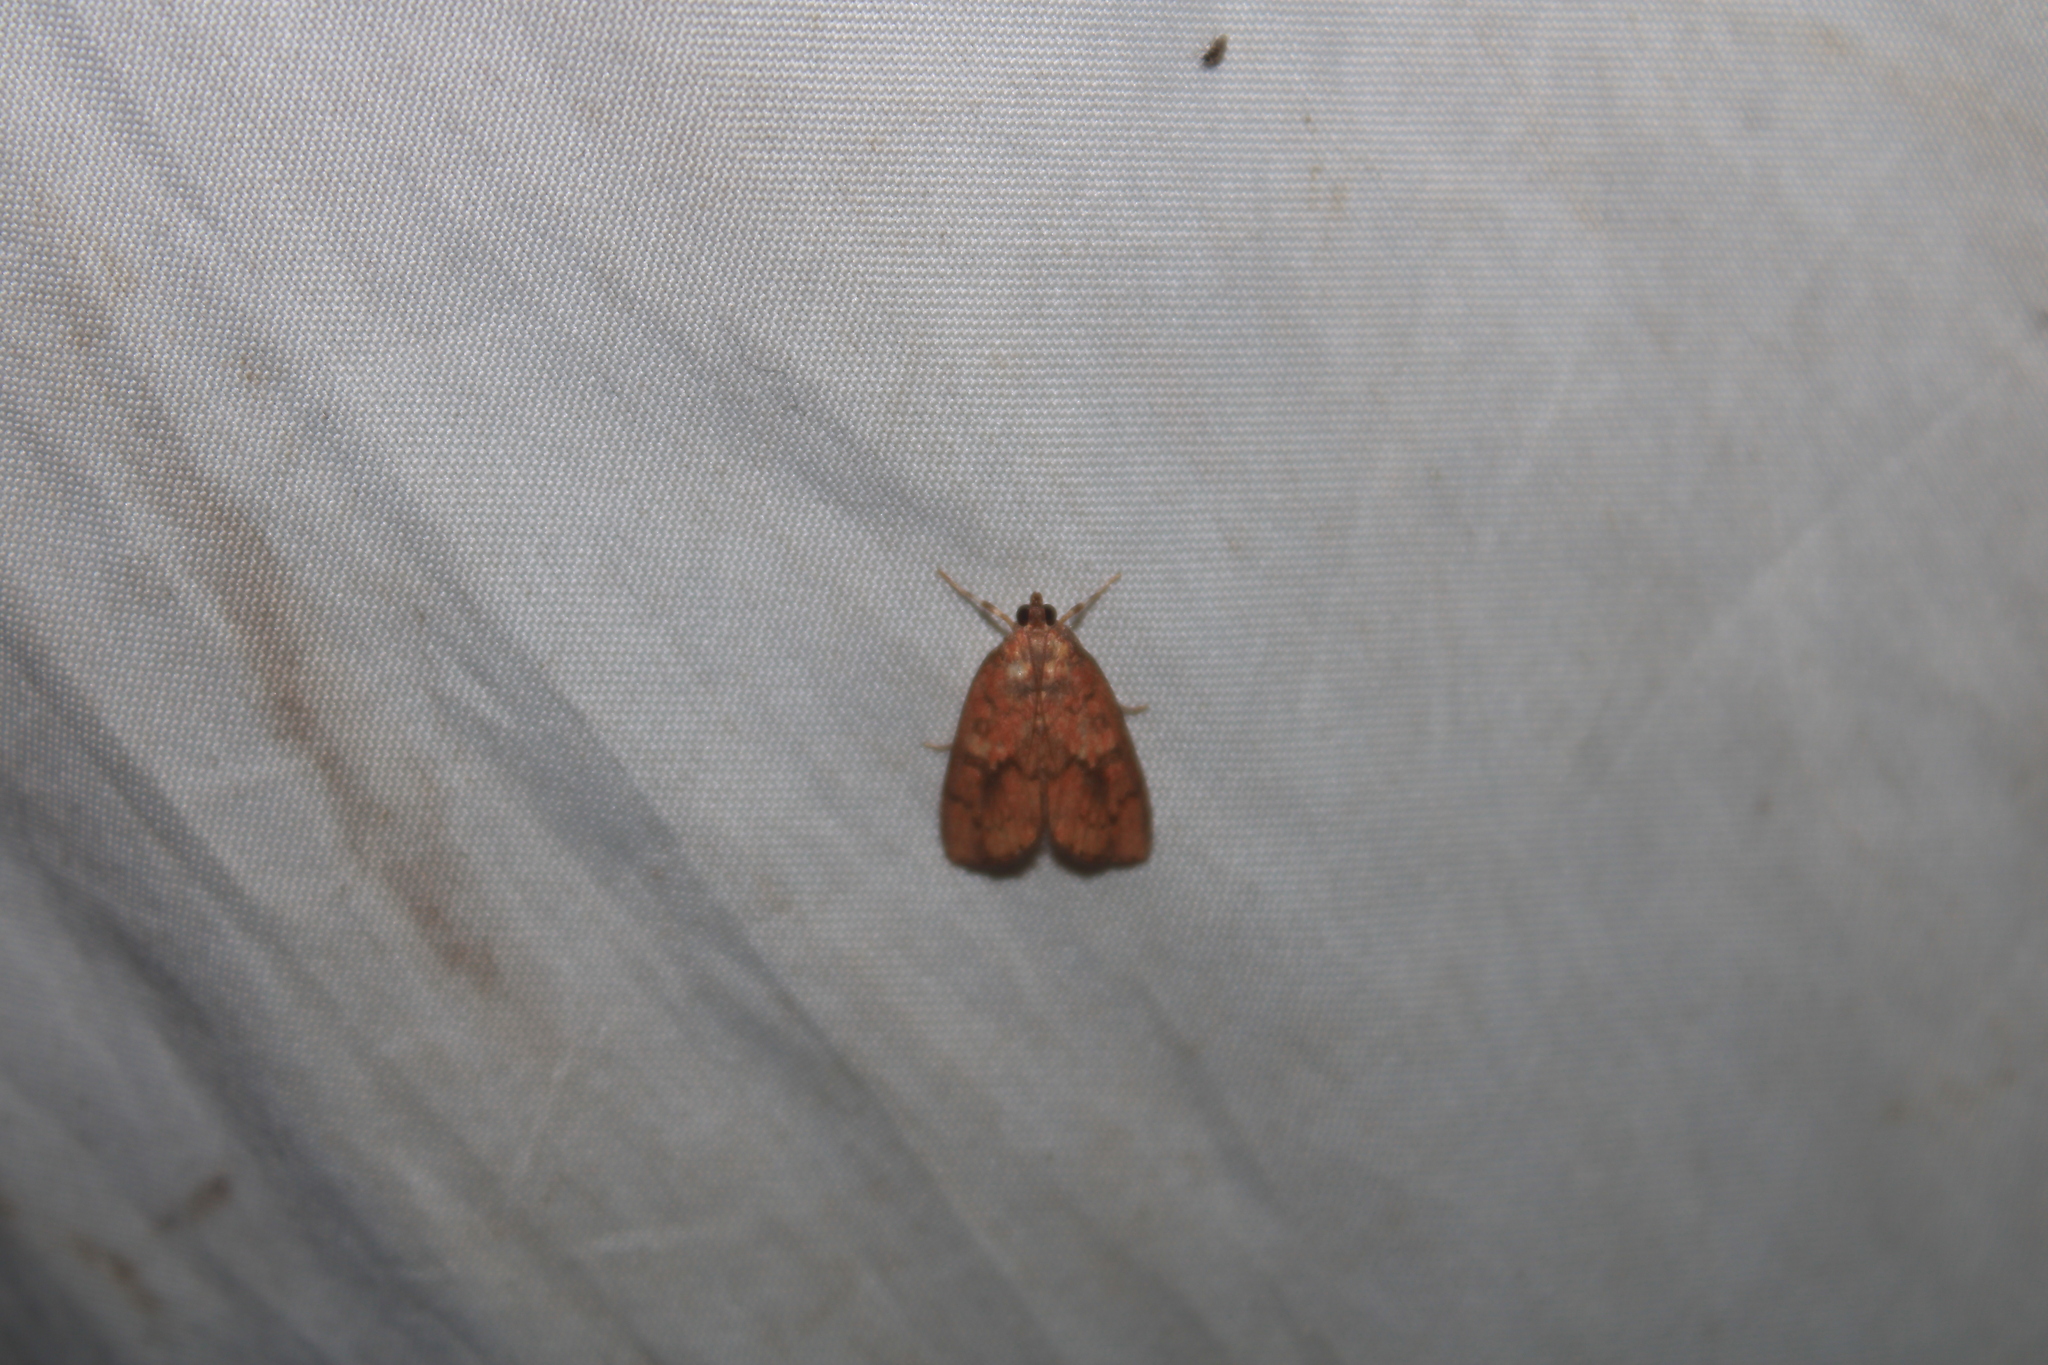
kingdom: Animalia
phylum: Arthropoda
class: Insecta
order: Lepidoptera
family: Crambidae
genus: Mimophobetron
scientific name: Mimophobetron pyropsalis
